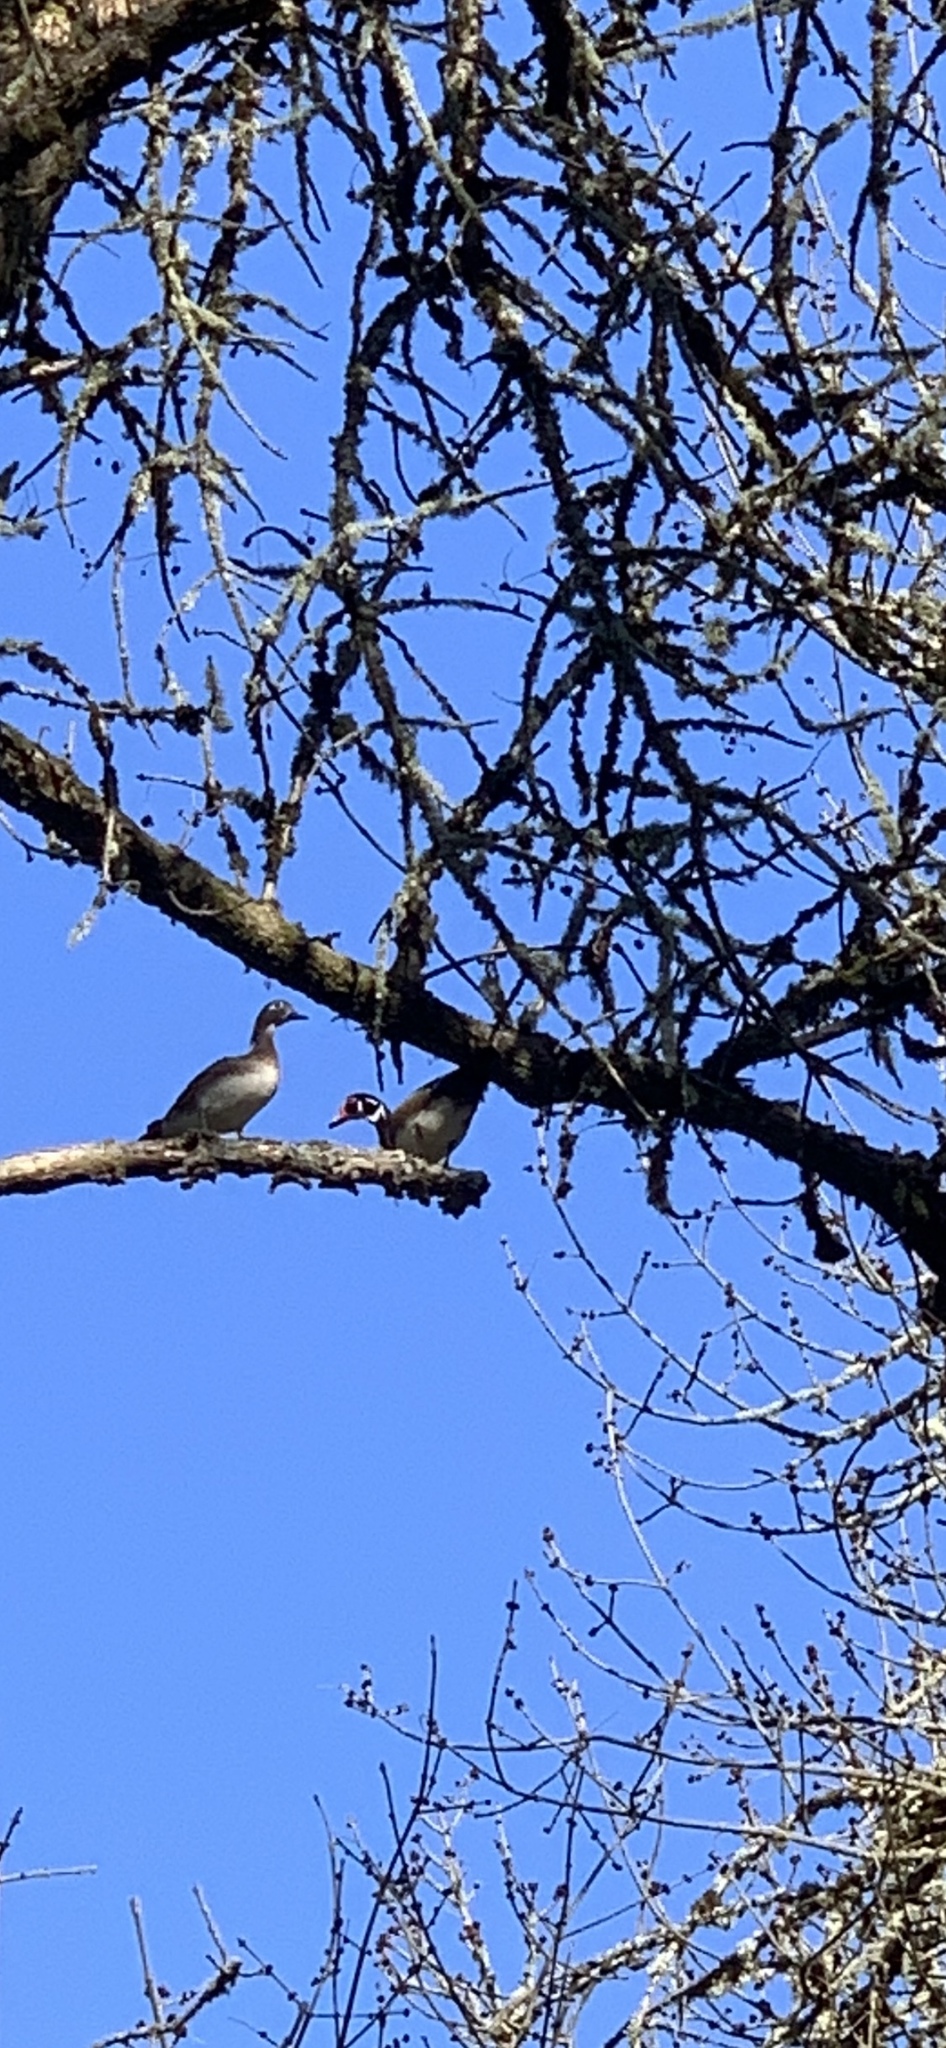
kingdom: Animalia
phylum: Chordata
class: Aves
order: Anseriformes
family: Anatidae
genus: Aix
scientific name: Aix sponsa
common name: Wood duck
